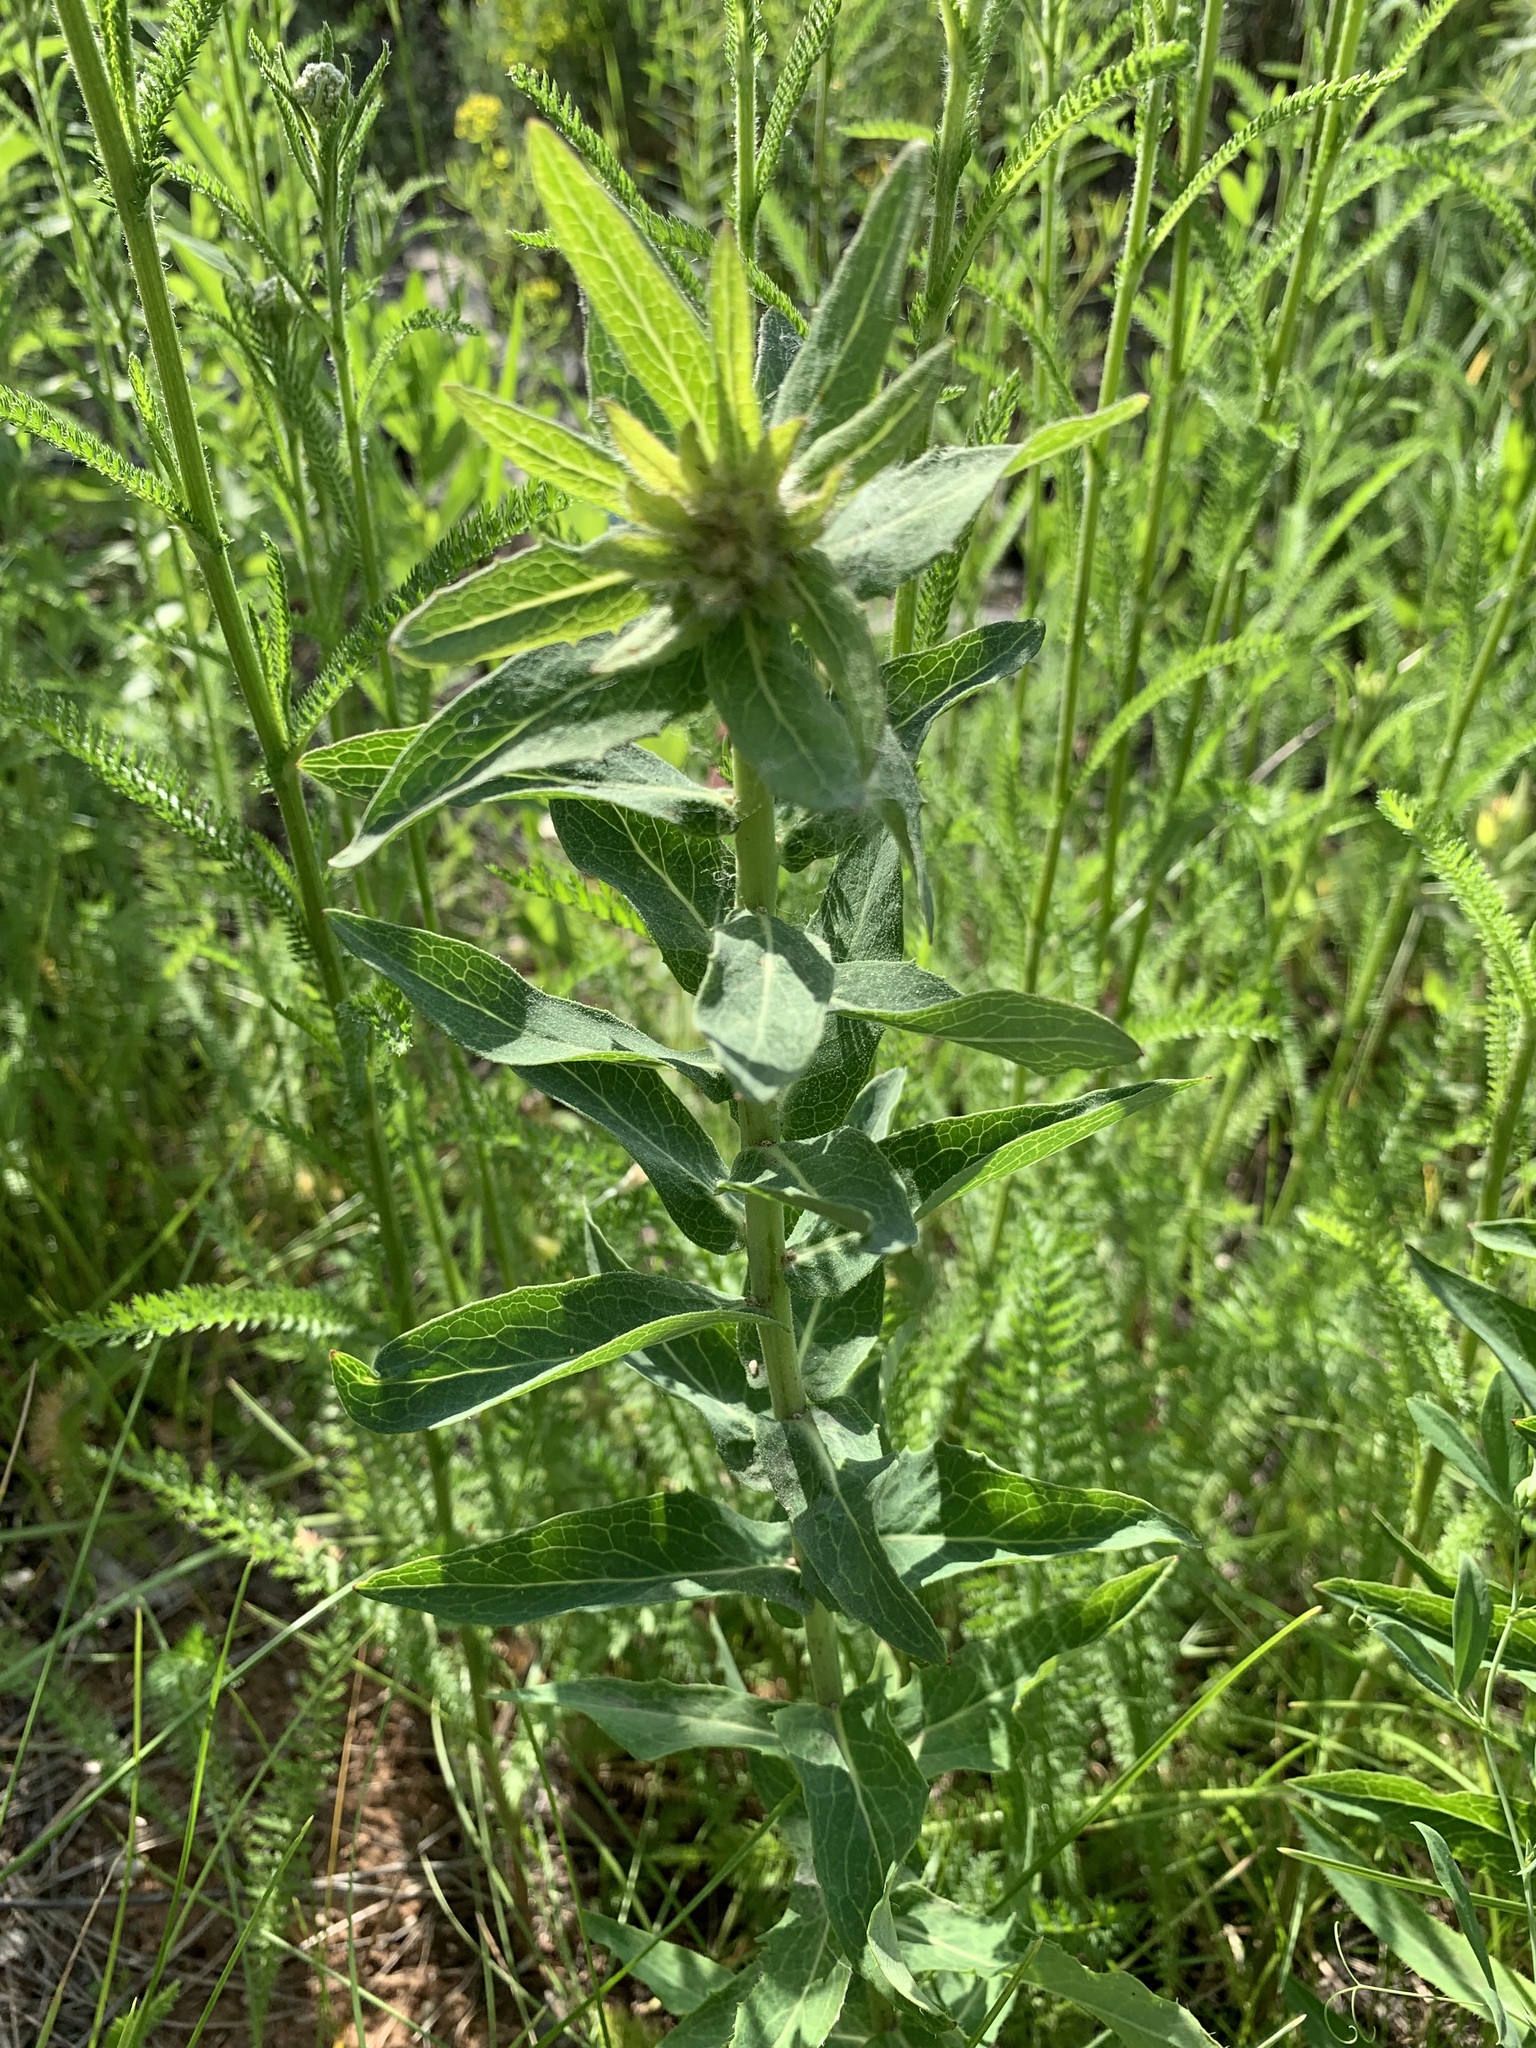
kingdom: Plantae
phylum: Tracheophyta
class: Magnoliopsida
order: Asterales
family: Asteraceae
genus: Hieracium
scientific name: Hieracium robustum
